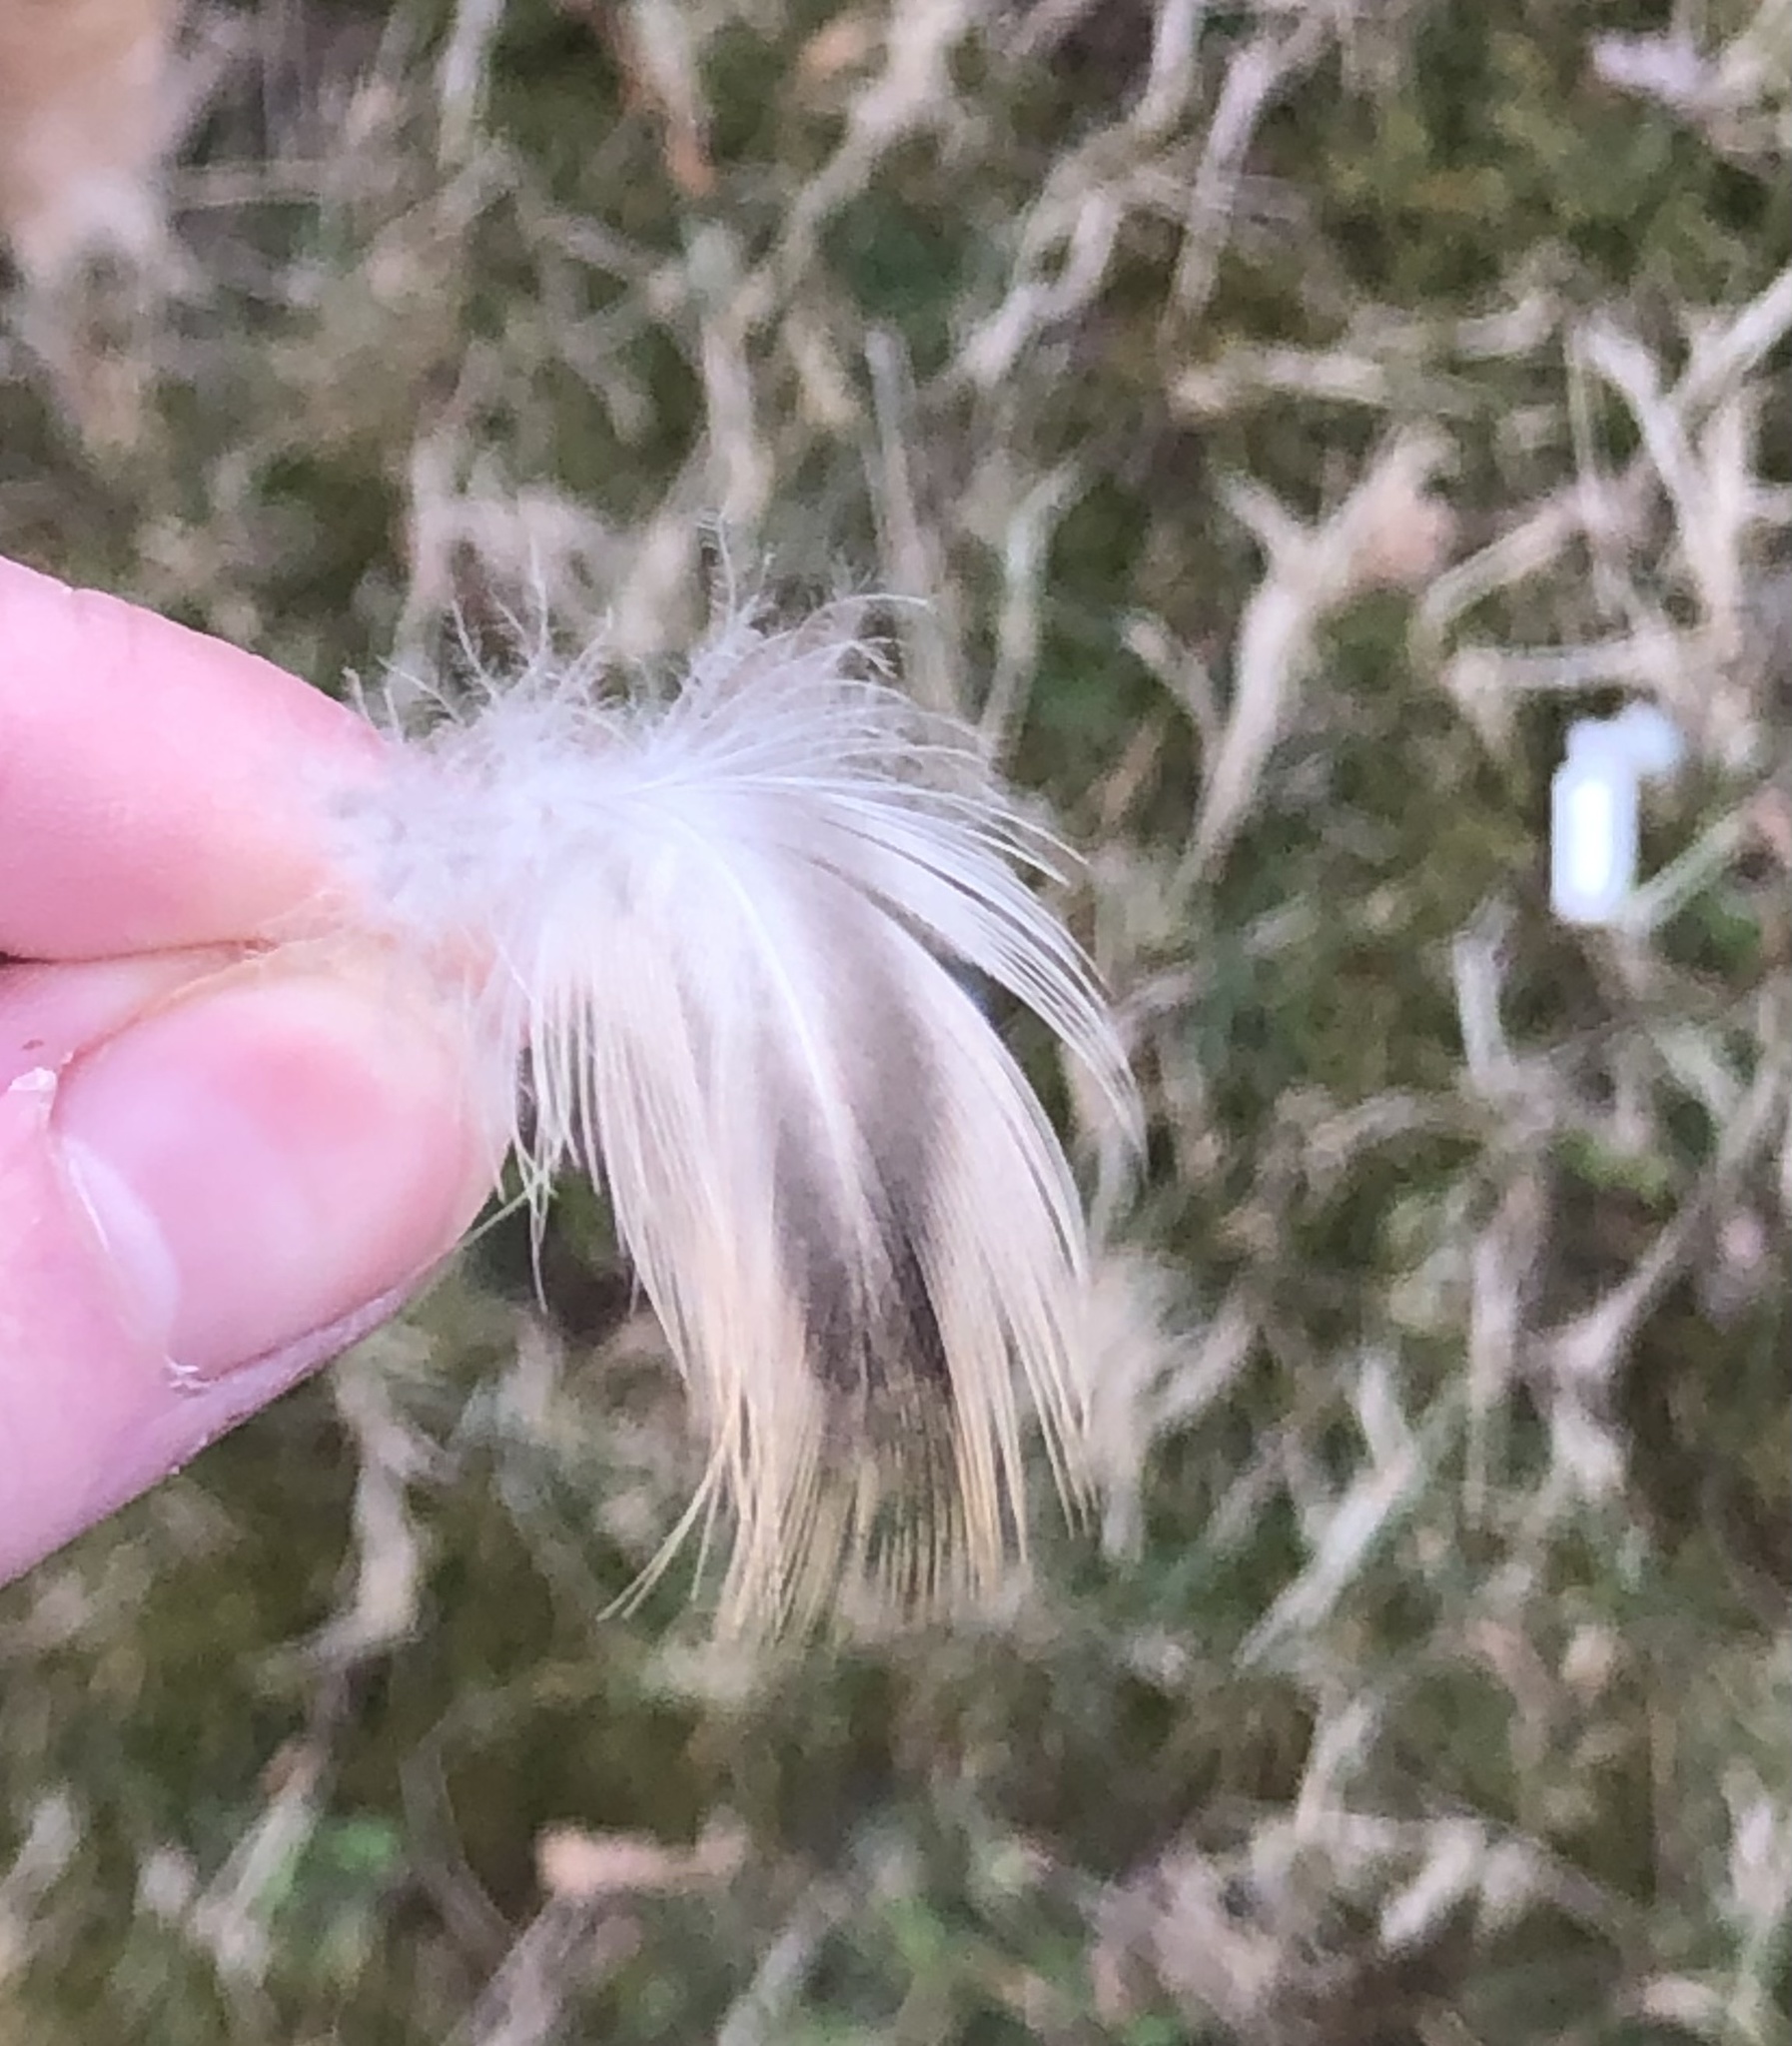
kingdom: Animalia
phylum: Chordata
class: Aves
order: Anseriformes
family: Anatidae
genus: Anas
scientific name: Anas platyrhynchos
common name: Mallard
